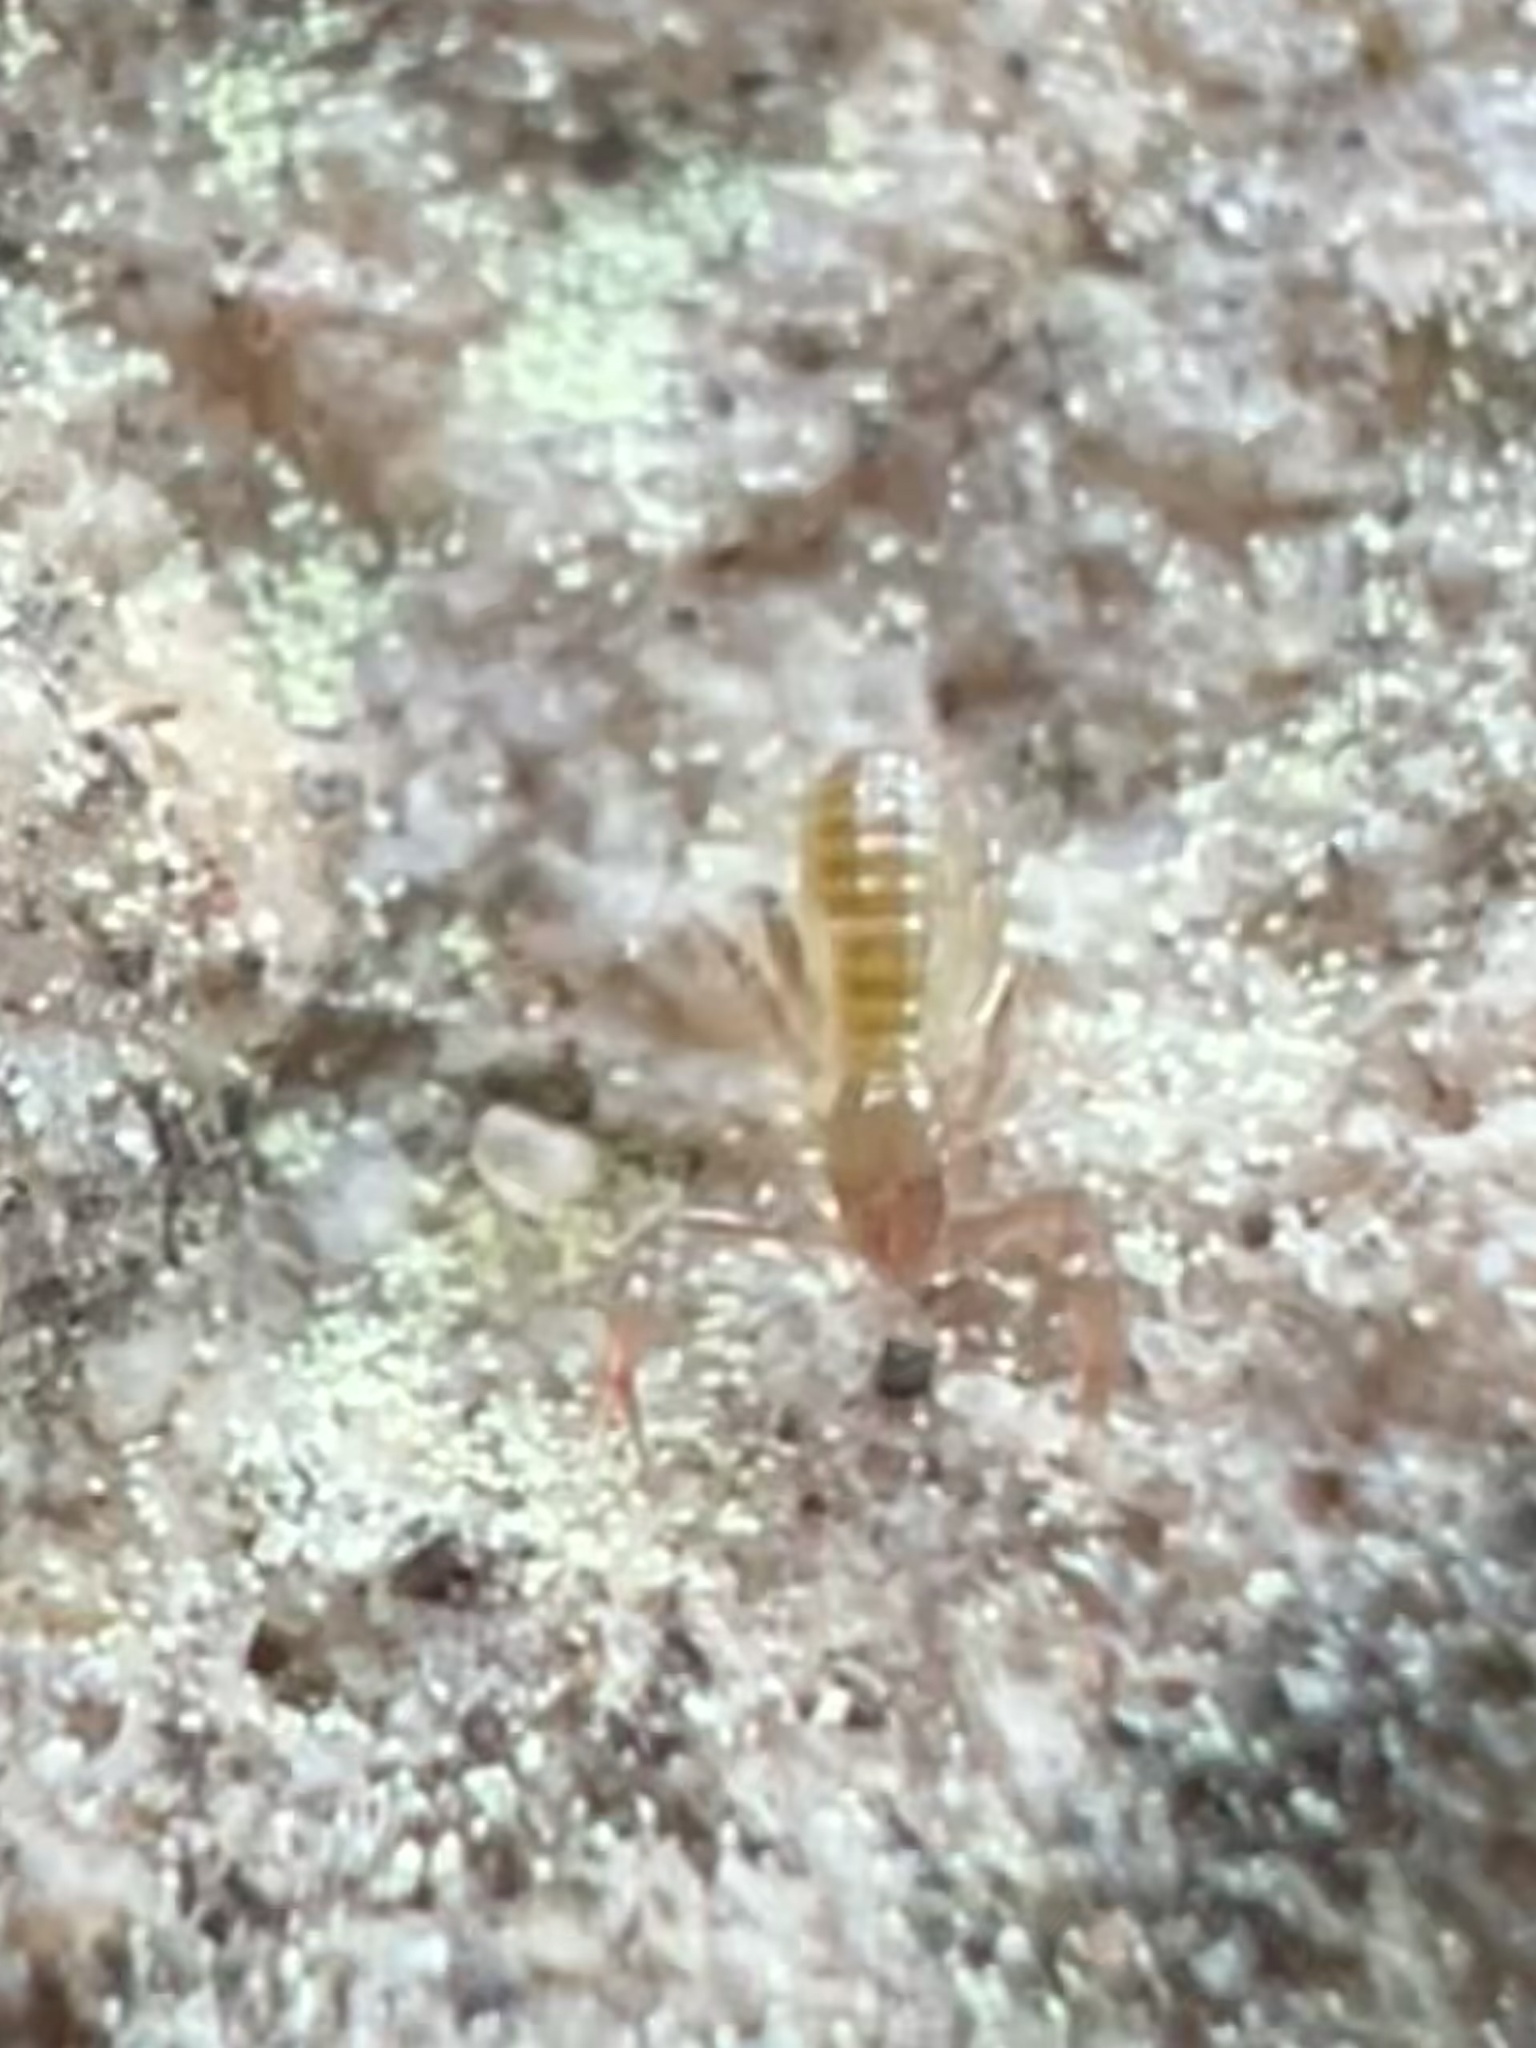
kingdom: Animalia
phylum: Arthropoda
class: Arachnida
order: Pseudoscorpiones
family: Chthoniidae
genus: Chthonius
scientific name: Chthonius paganus
